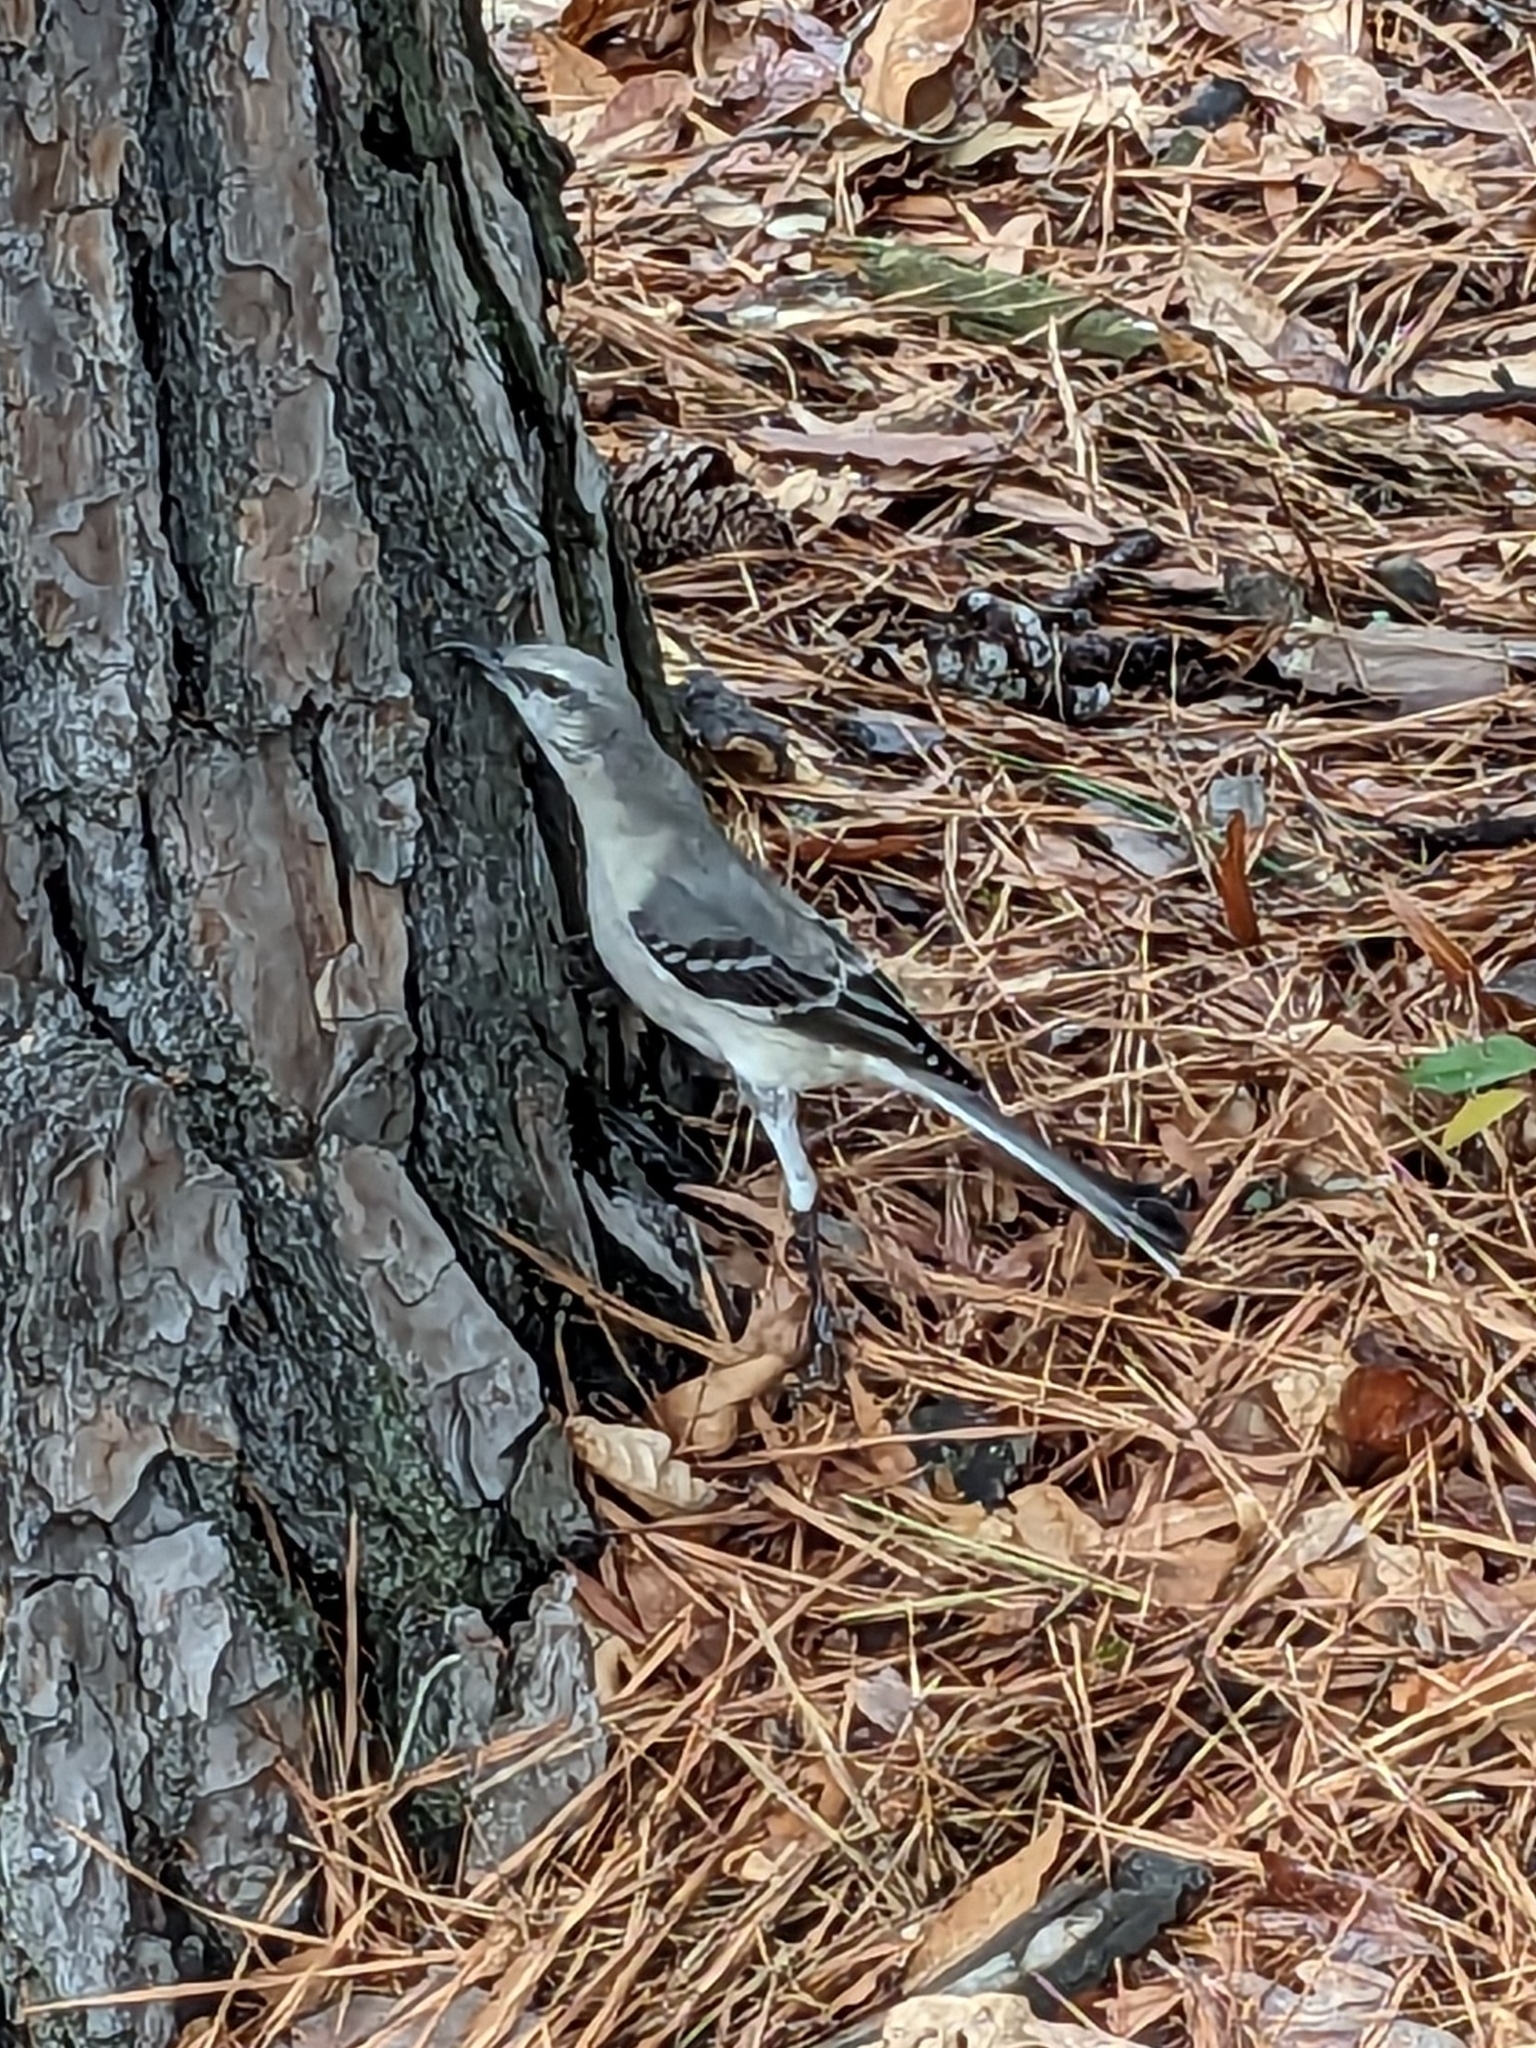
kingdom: Animalia
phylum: Chordata
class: Aves
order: Passeriformes
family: Mimidae
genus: Mimus
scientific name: Mimus polyglottos
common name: Northern mockingbird
